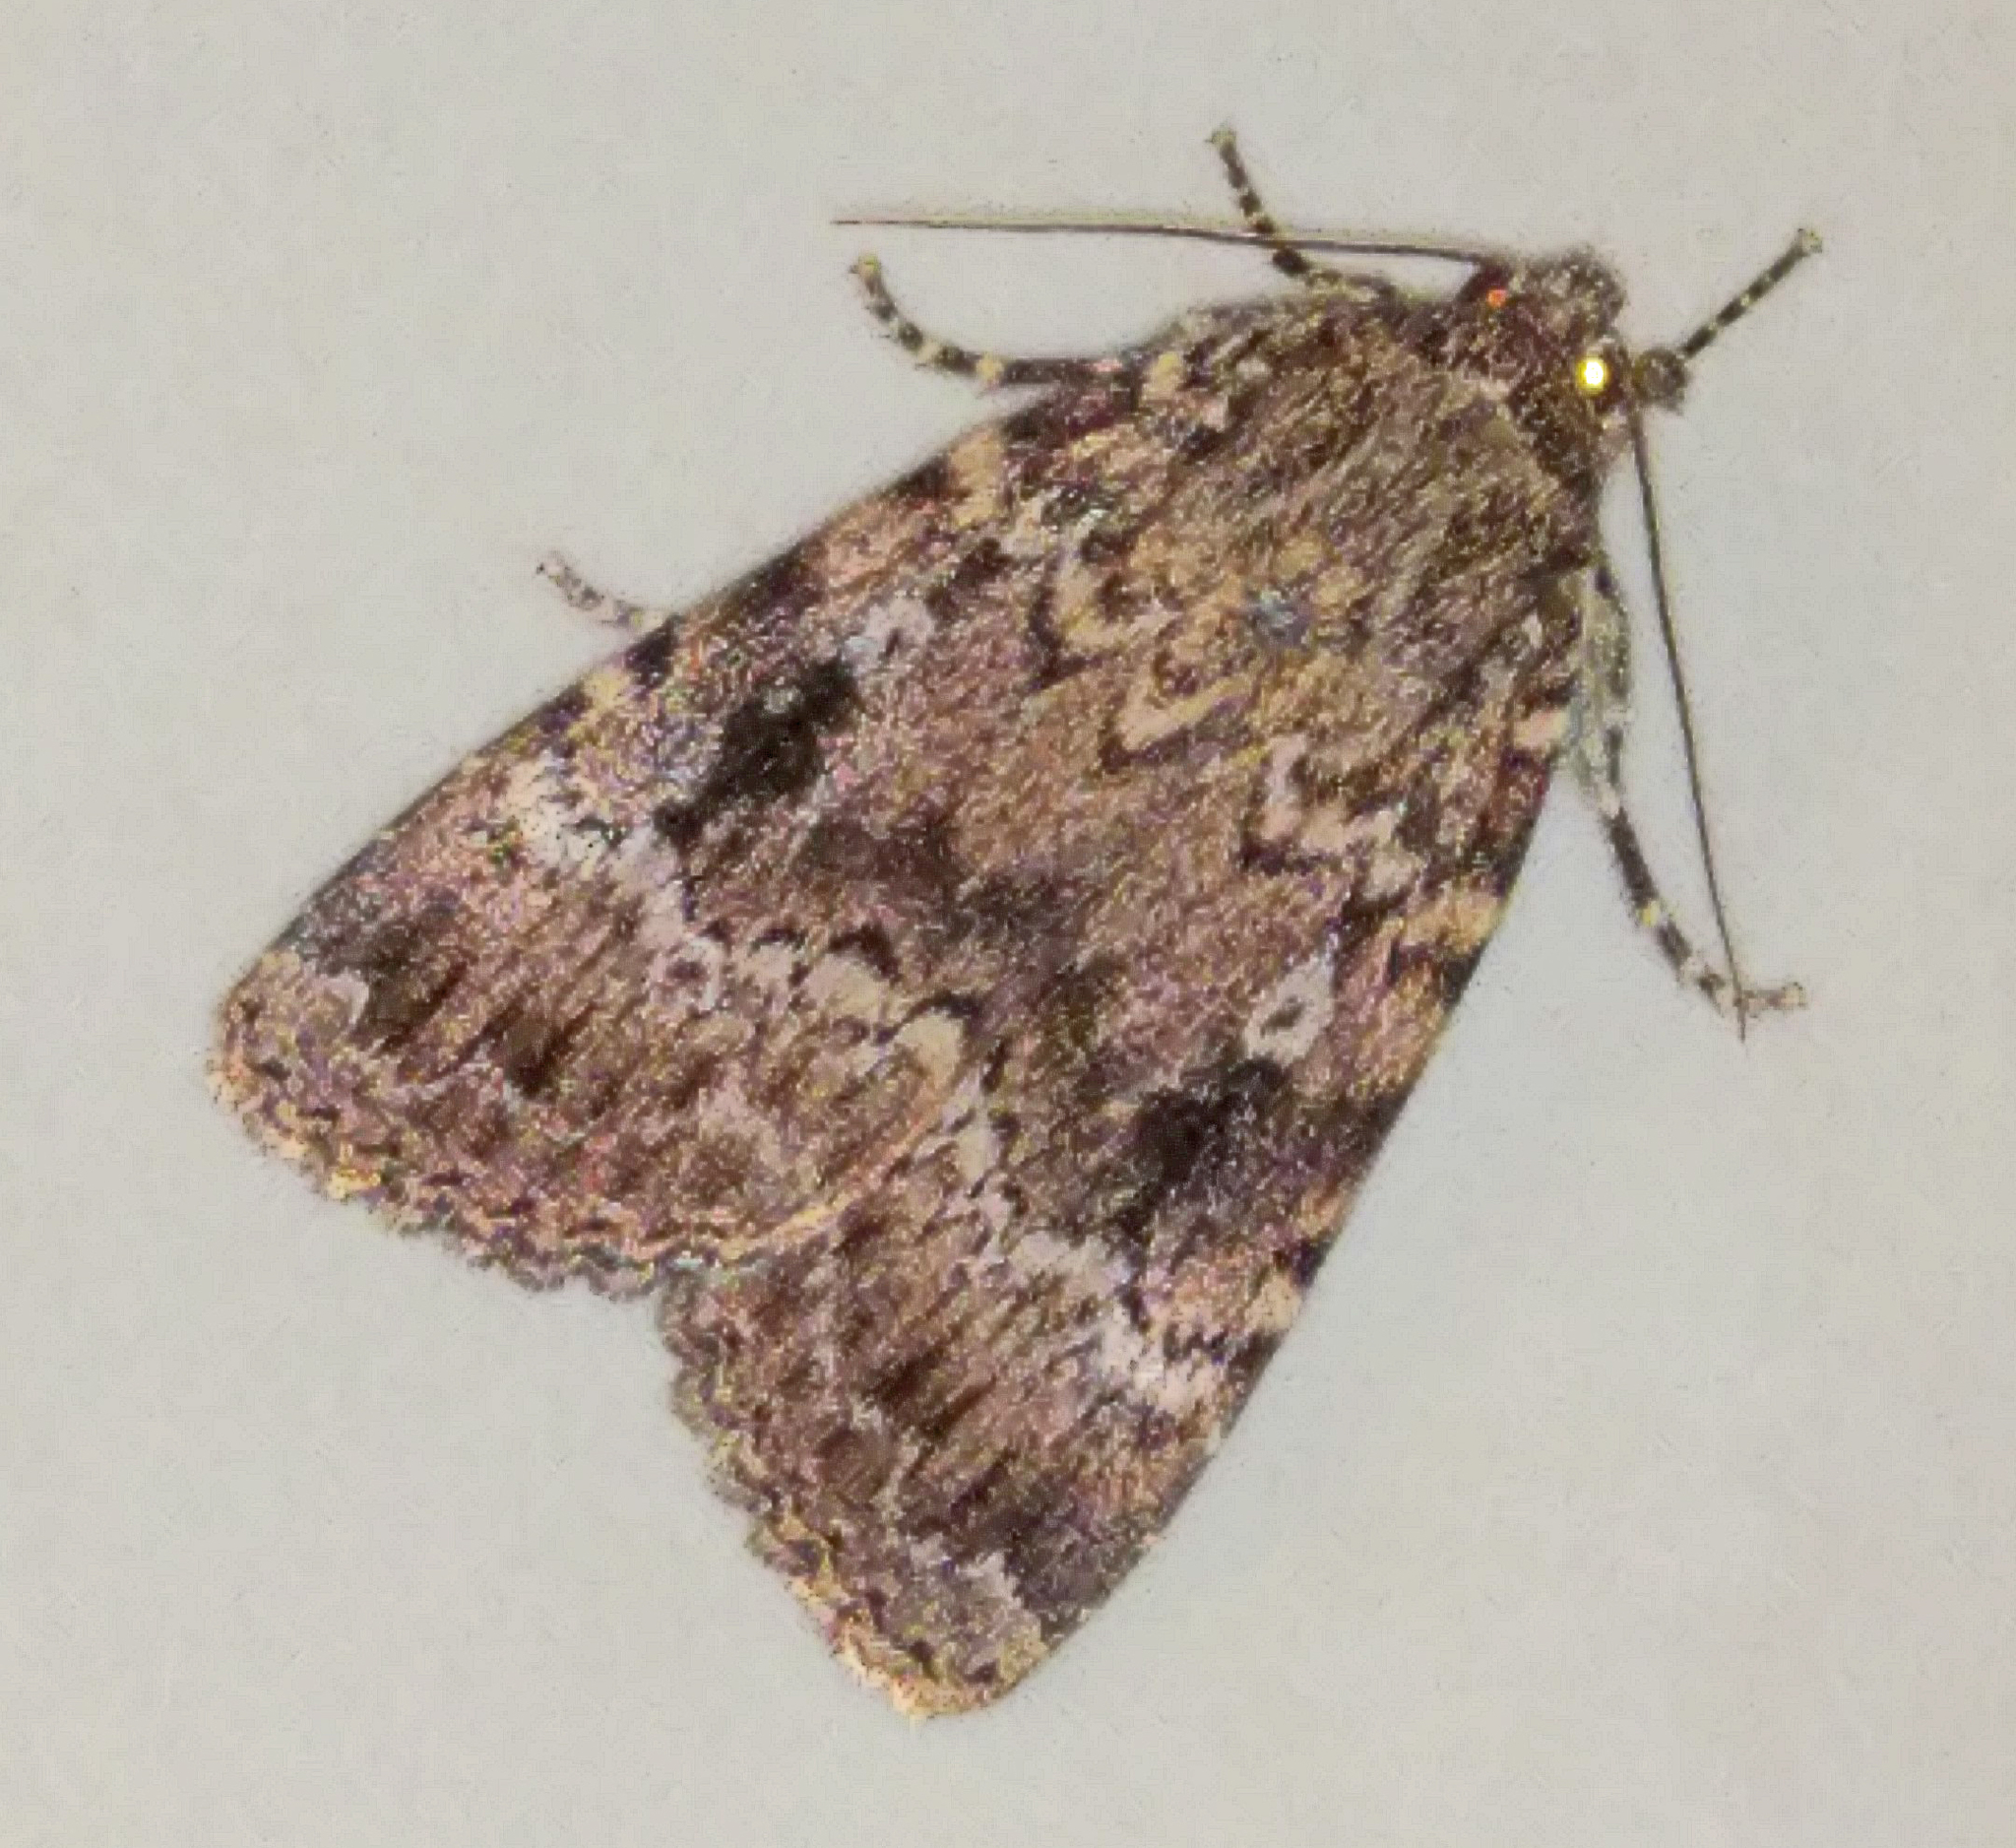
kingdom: Animalia
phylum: Arthropoda
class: Insecta
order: Lepidoptera
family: Noctuidae
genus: Amphipyra
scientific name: Amphipyra berbera
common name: Svensson's copper underwing
